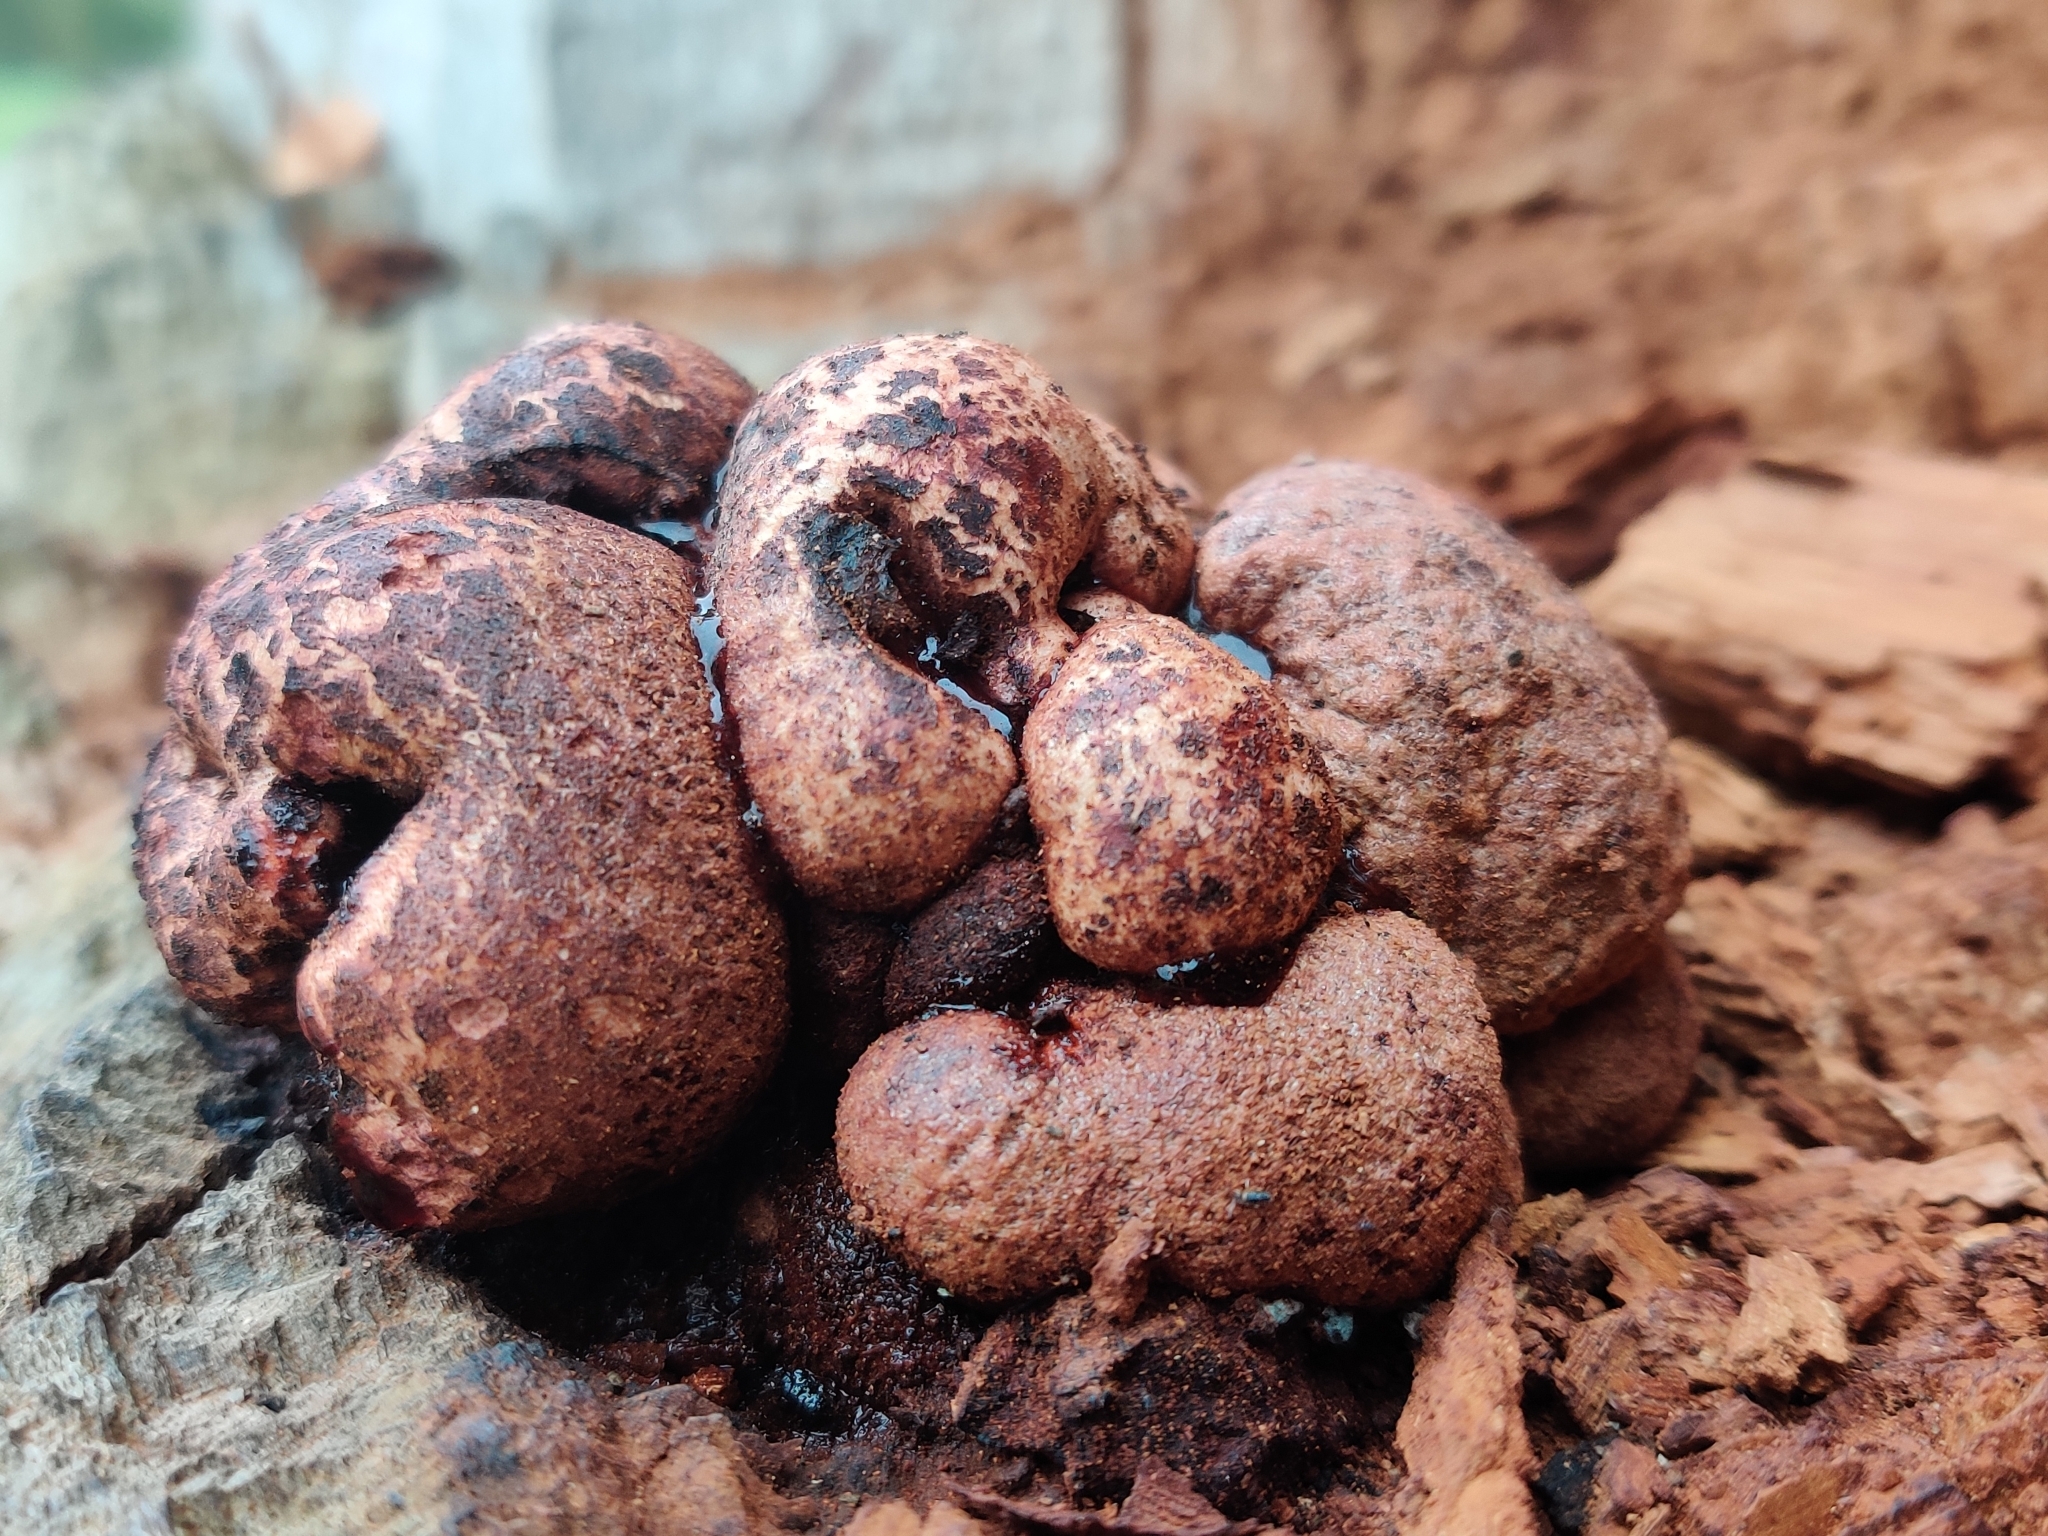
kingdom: Fungi
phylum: Basidiomycota
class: Agaricomycetes
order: Agaricales
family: Fistulinaceae
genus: Fistulina
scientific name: Fistulina hepatica
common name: Beef-steak fungus
